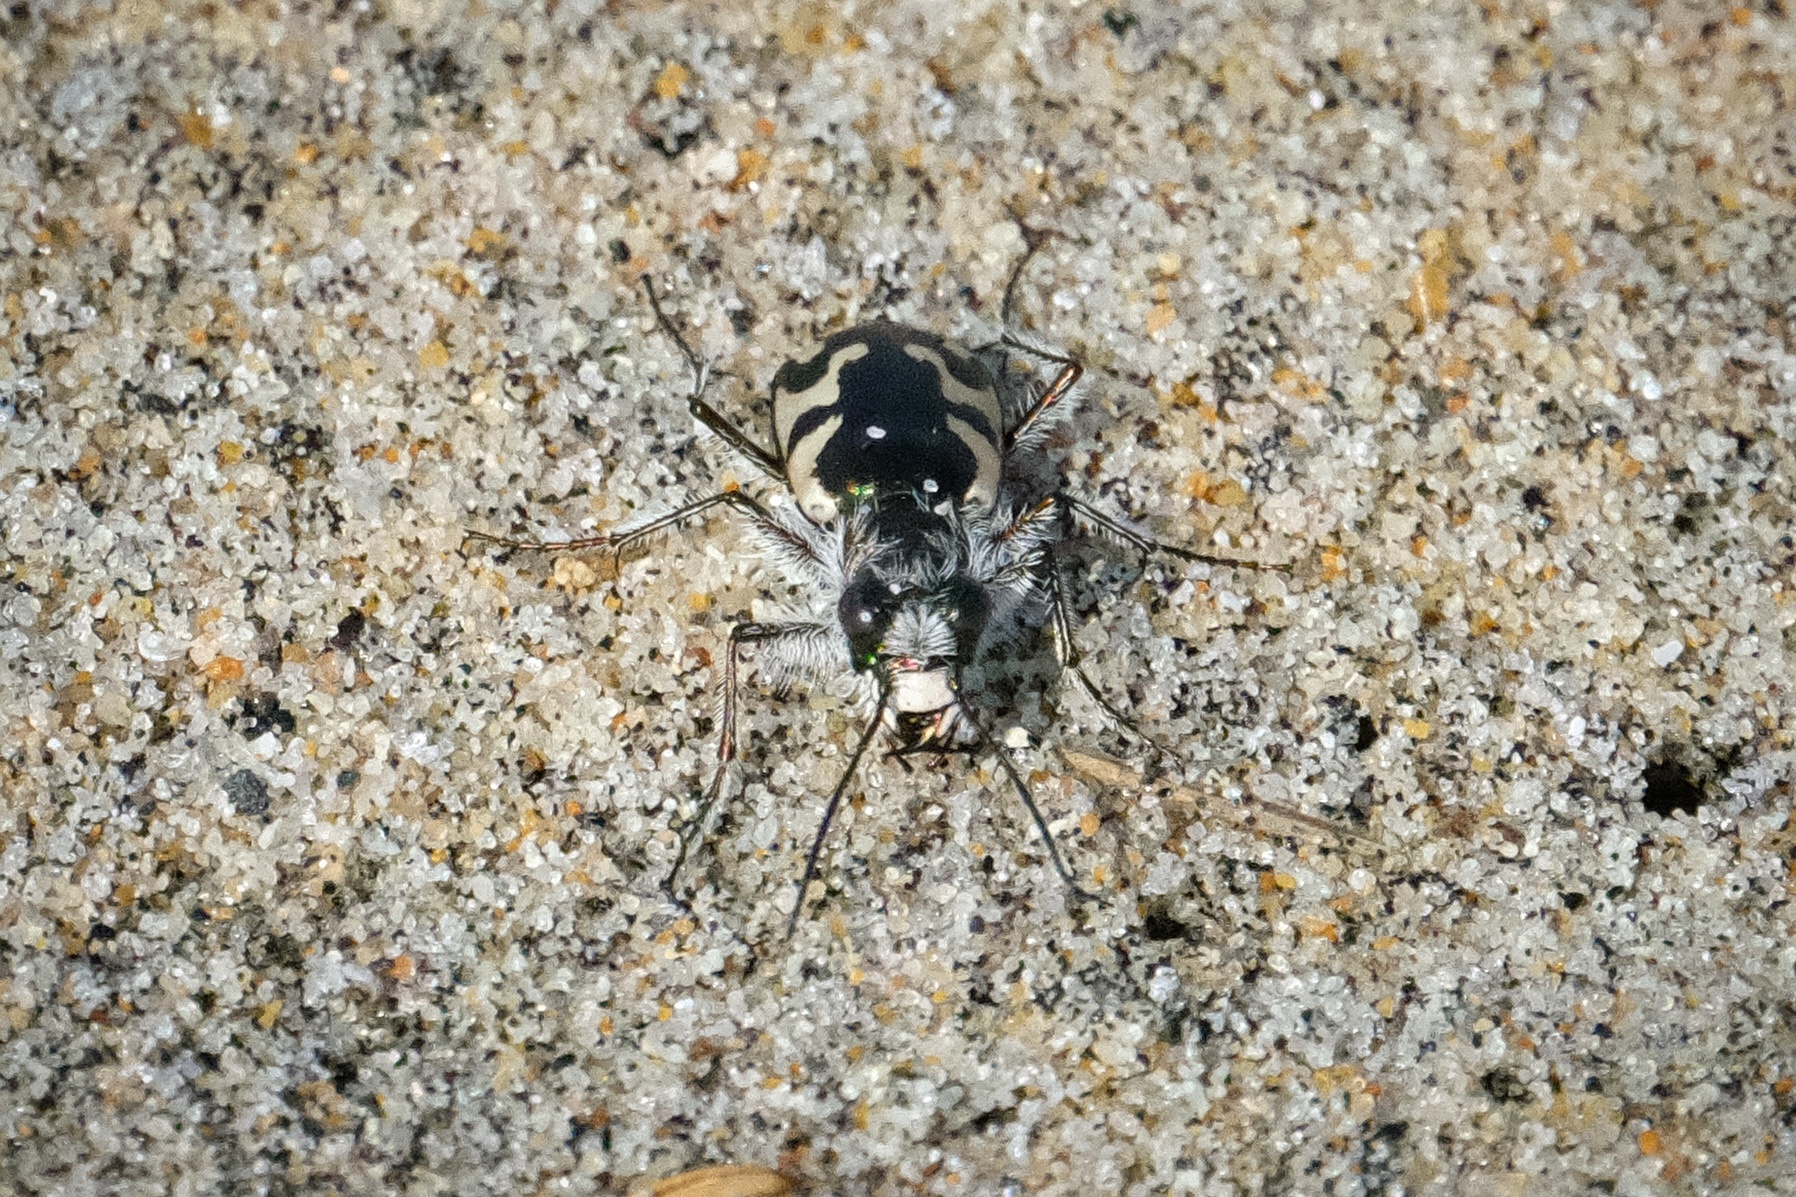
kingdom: Animalia
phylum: Arthropoda
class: Insecta
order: Coleoptera
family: Carabidae
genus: Cicindela
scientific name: Cicindela latesignata
